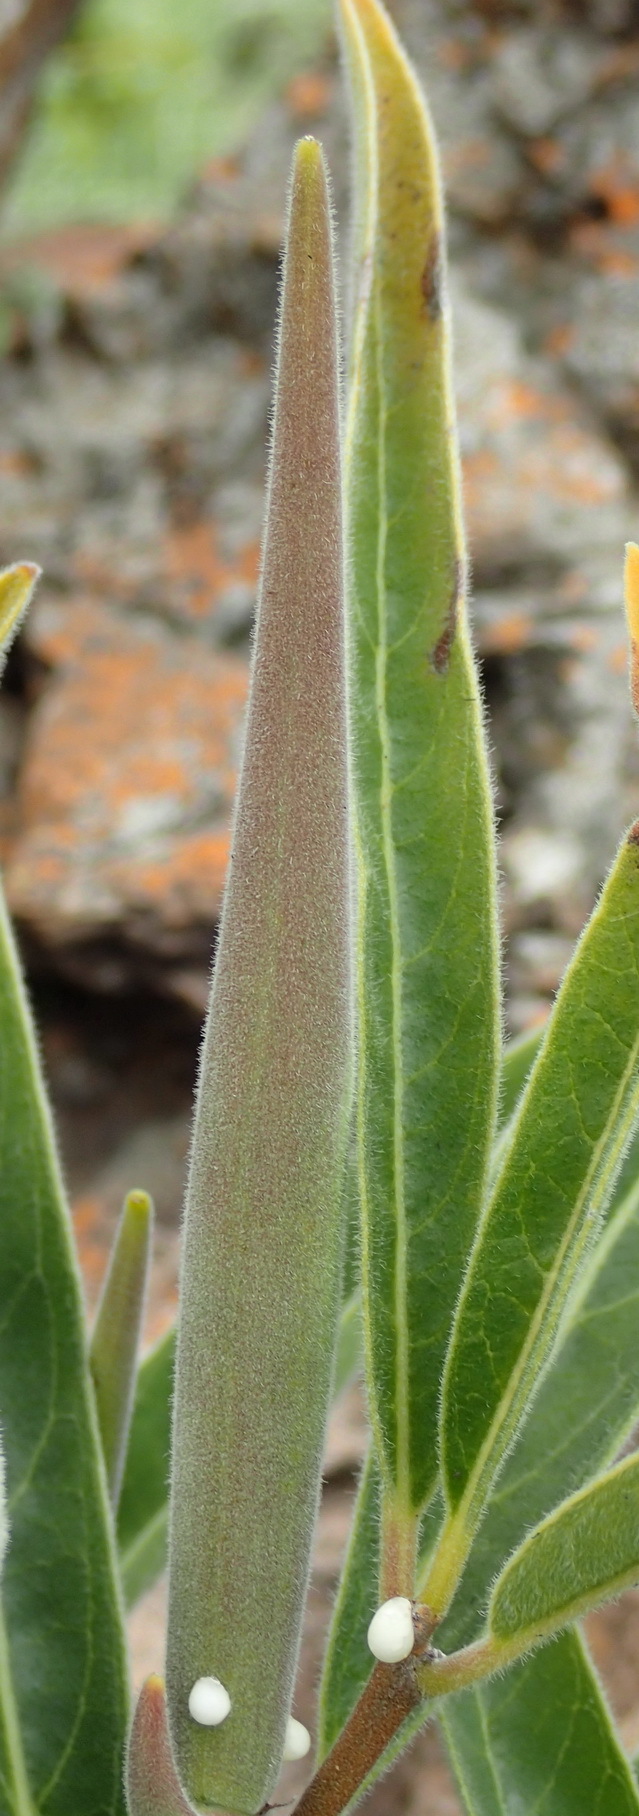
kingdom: Plantae
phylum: Tracheophyta
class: Magnoliopsida
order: Gentianales
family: Apocynaceae
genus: Raphionacme
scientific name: Raphionacme galpinii
